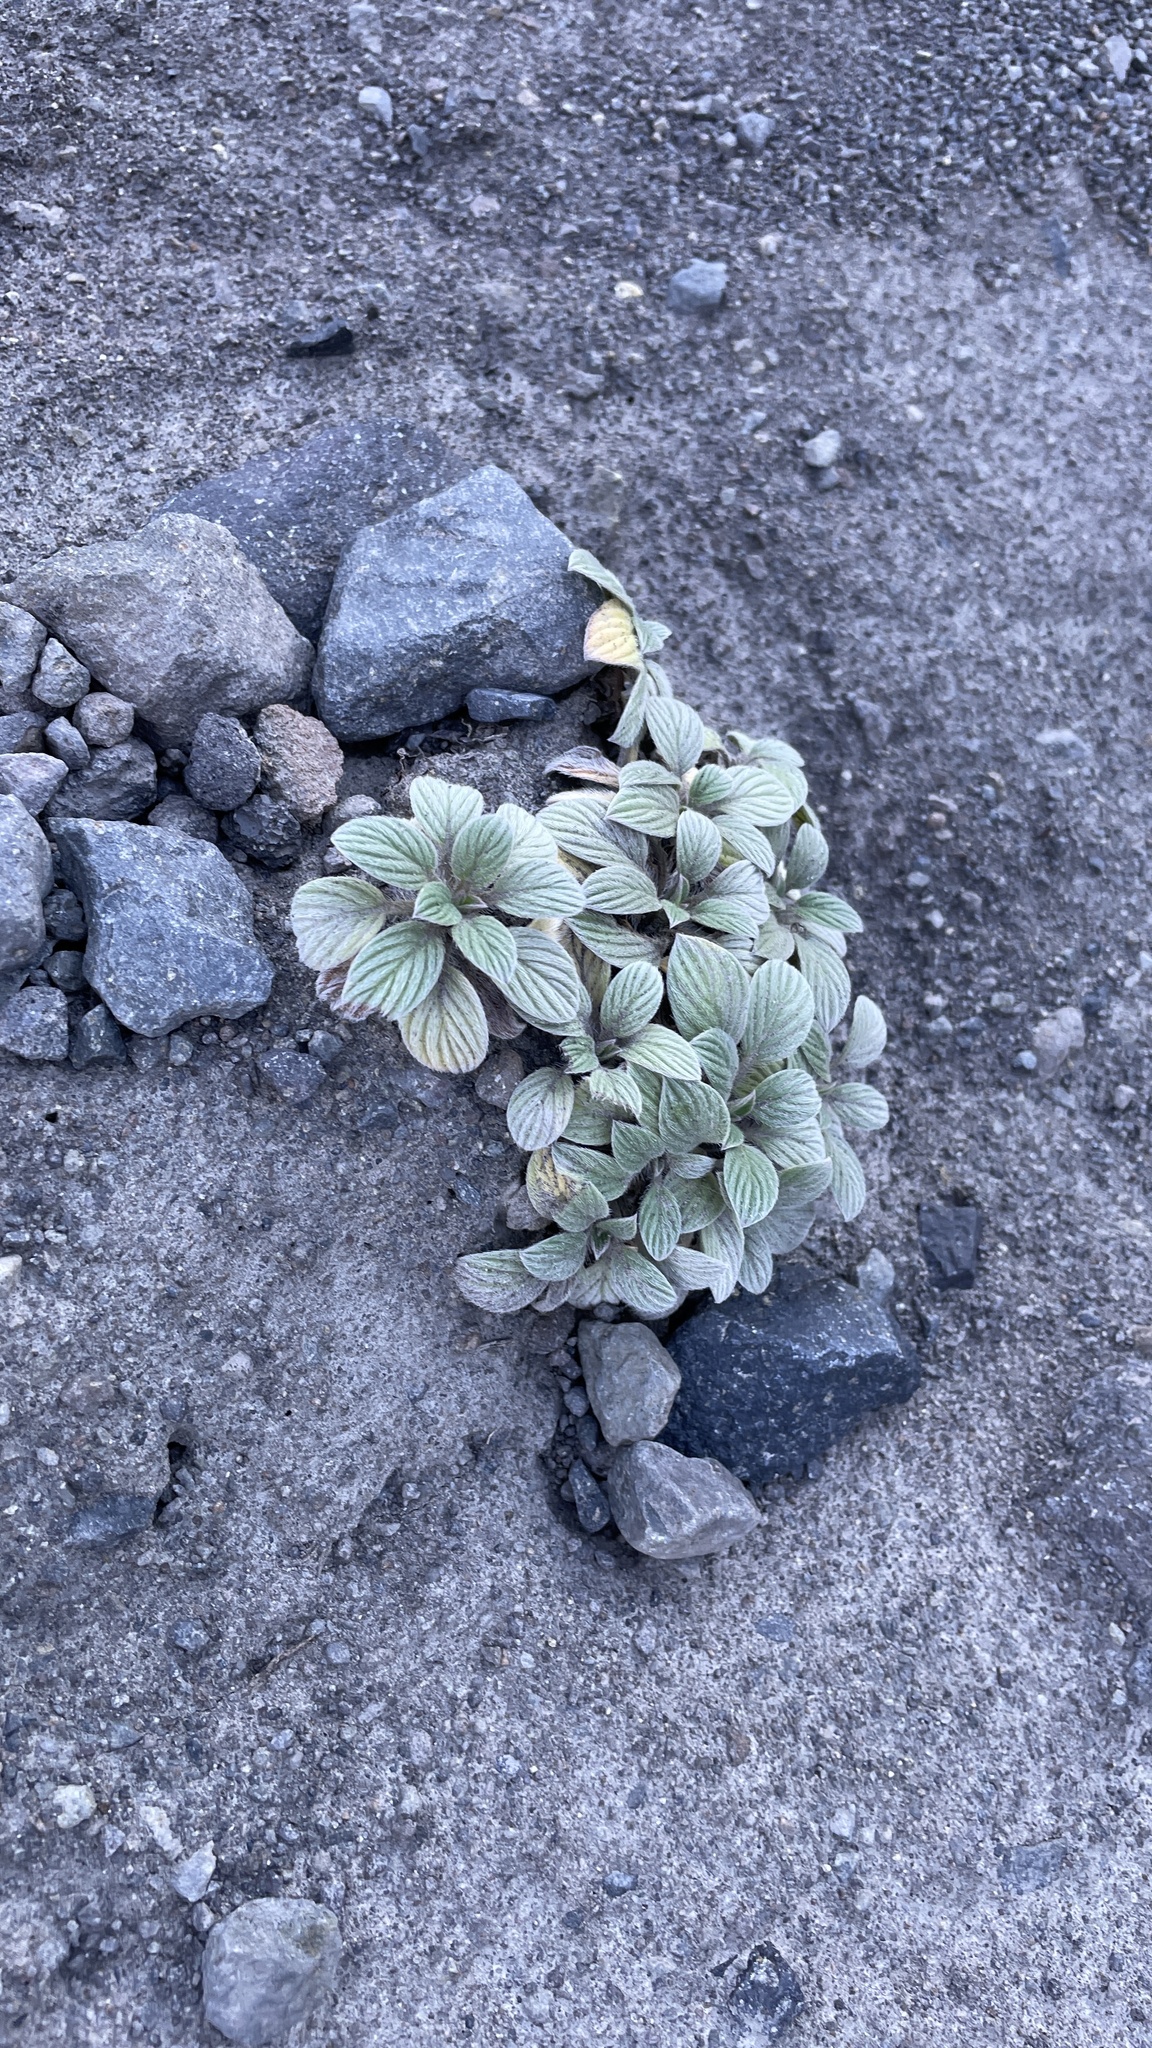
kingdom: Plantae
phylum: Tracheophyta
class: Magnoliopsida
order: Boraginales
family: Hydrophyllaceae
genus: Phacelia
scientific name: Phacelia hastata
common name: Silver-leaved phacelia
